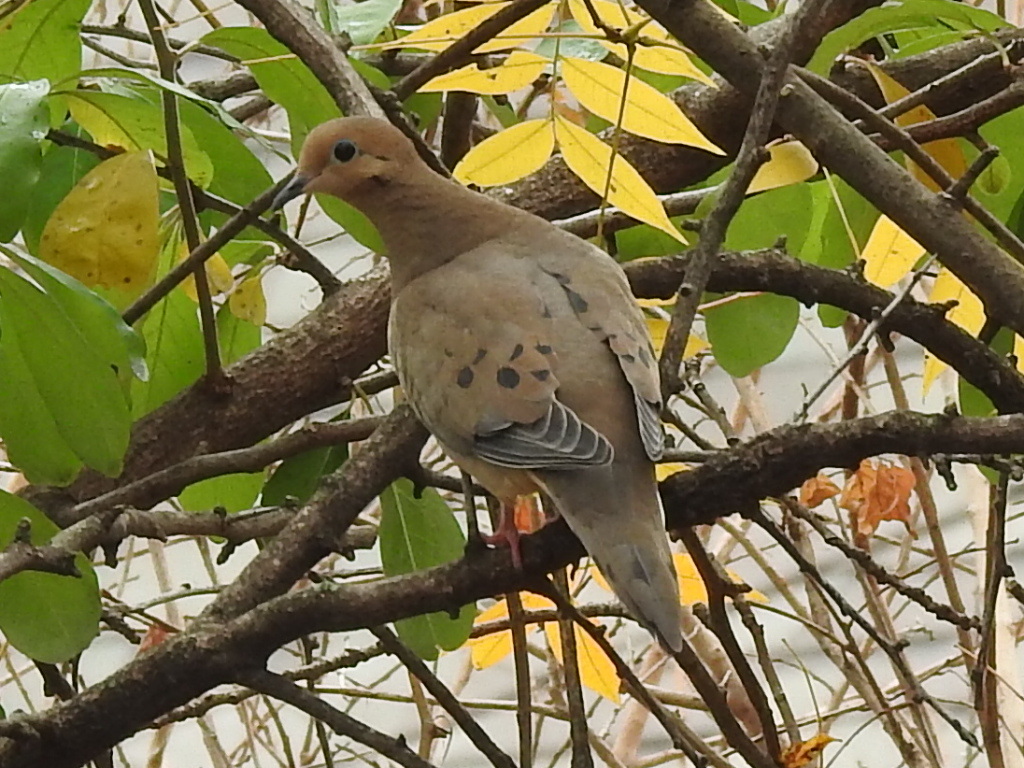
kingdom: Animalia
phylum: Chordata
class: Aves
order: Columbiformes
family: Columbidae
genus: Zenaida
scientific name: Zenaida macroura
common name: Mourning dove
